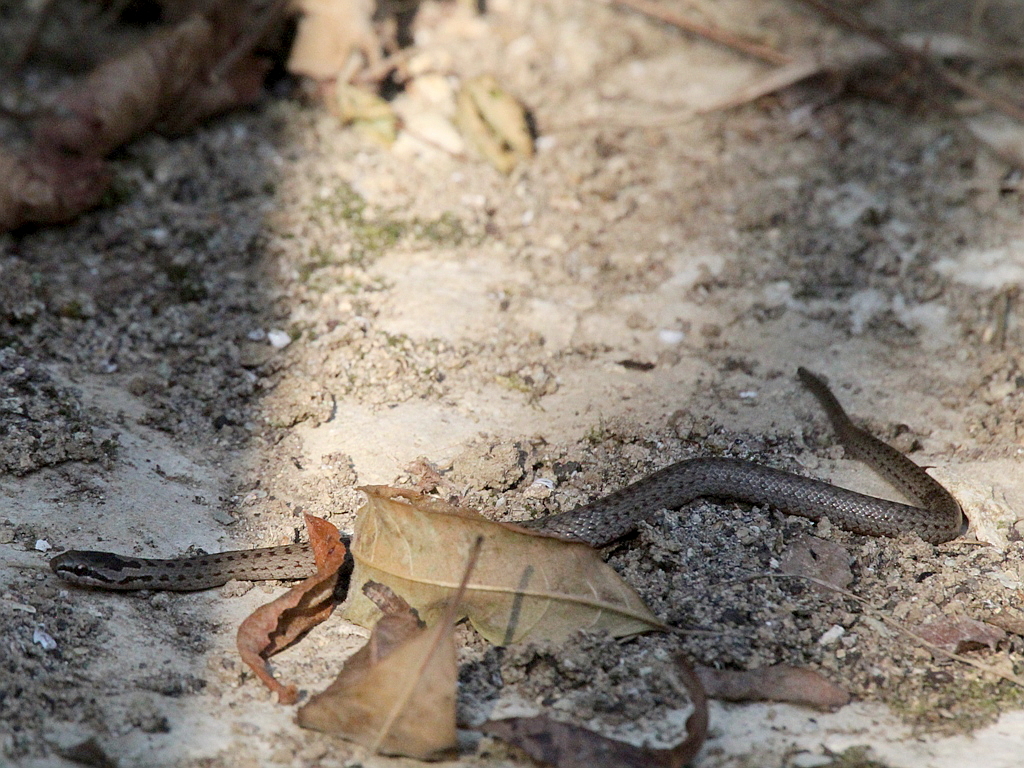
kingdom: Animalia
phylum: Chordata
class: Squamata
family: Colubridae
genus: Coronella
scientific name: Coronella austriaca
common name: Smooth snake
